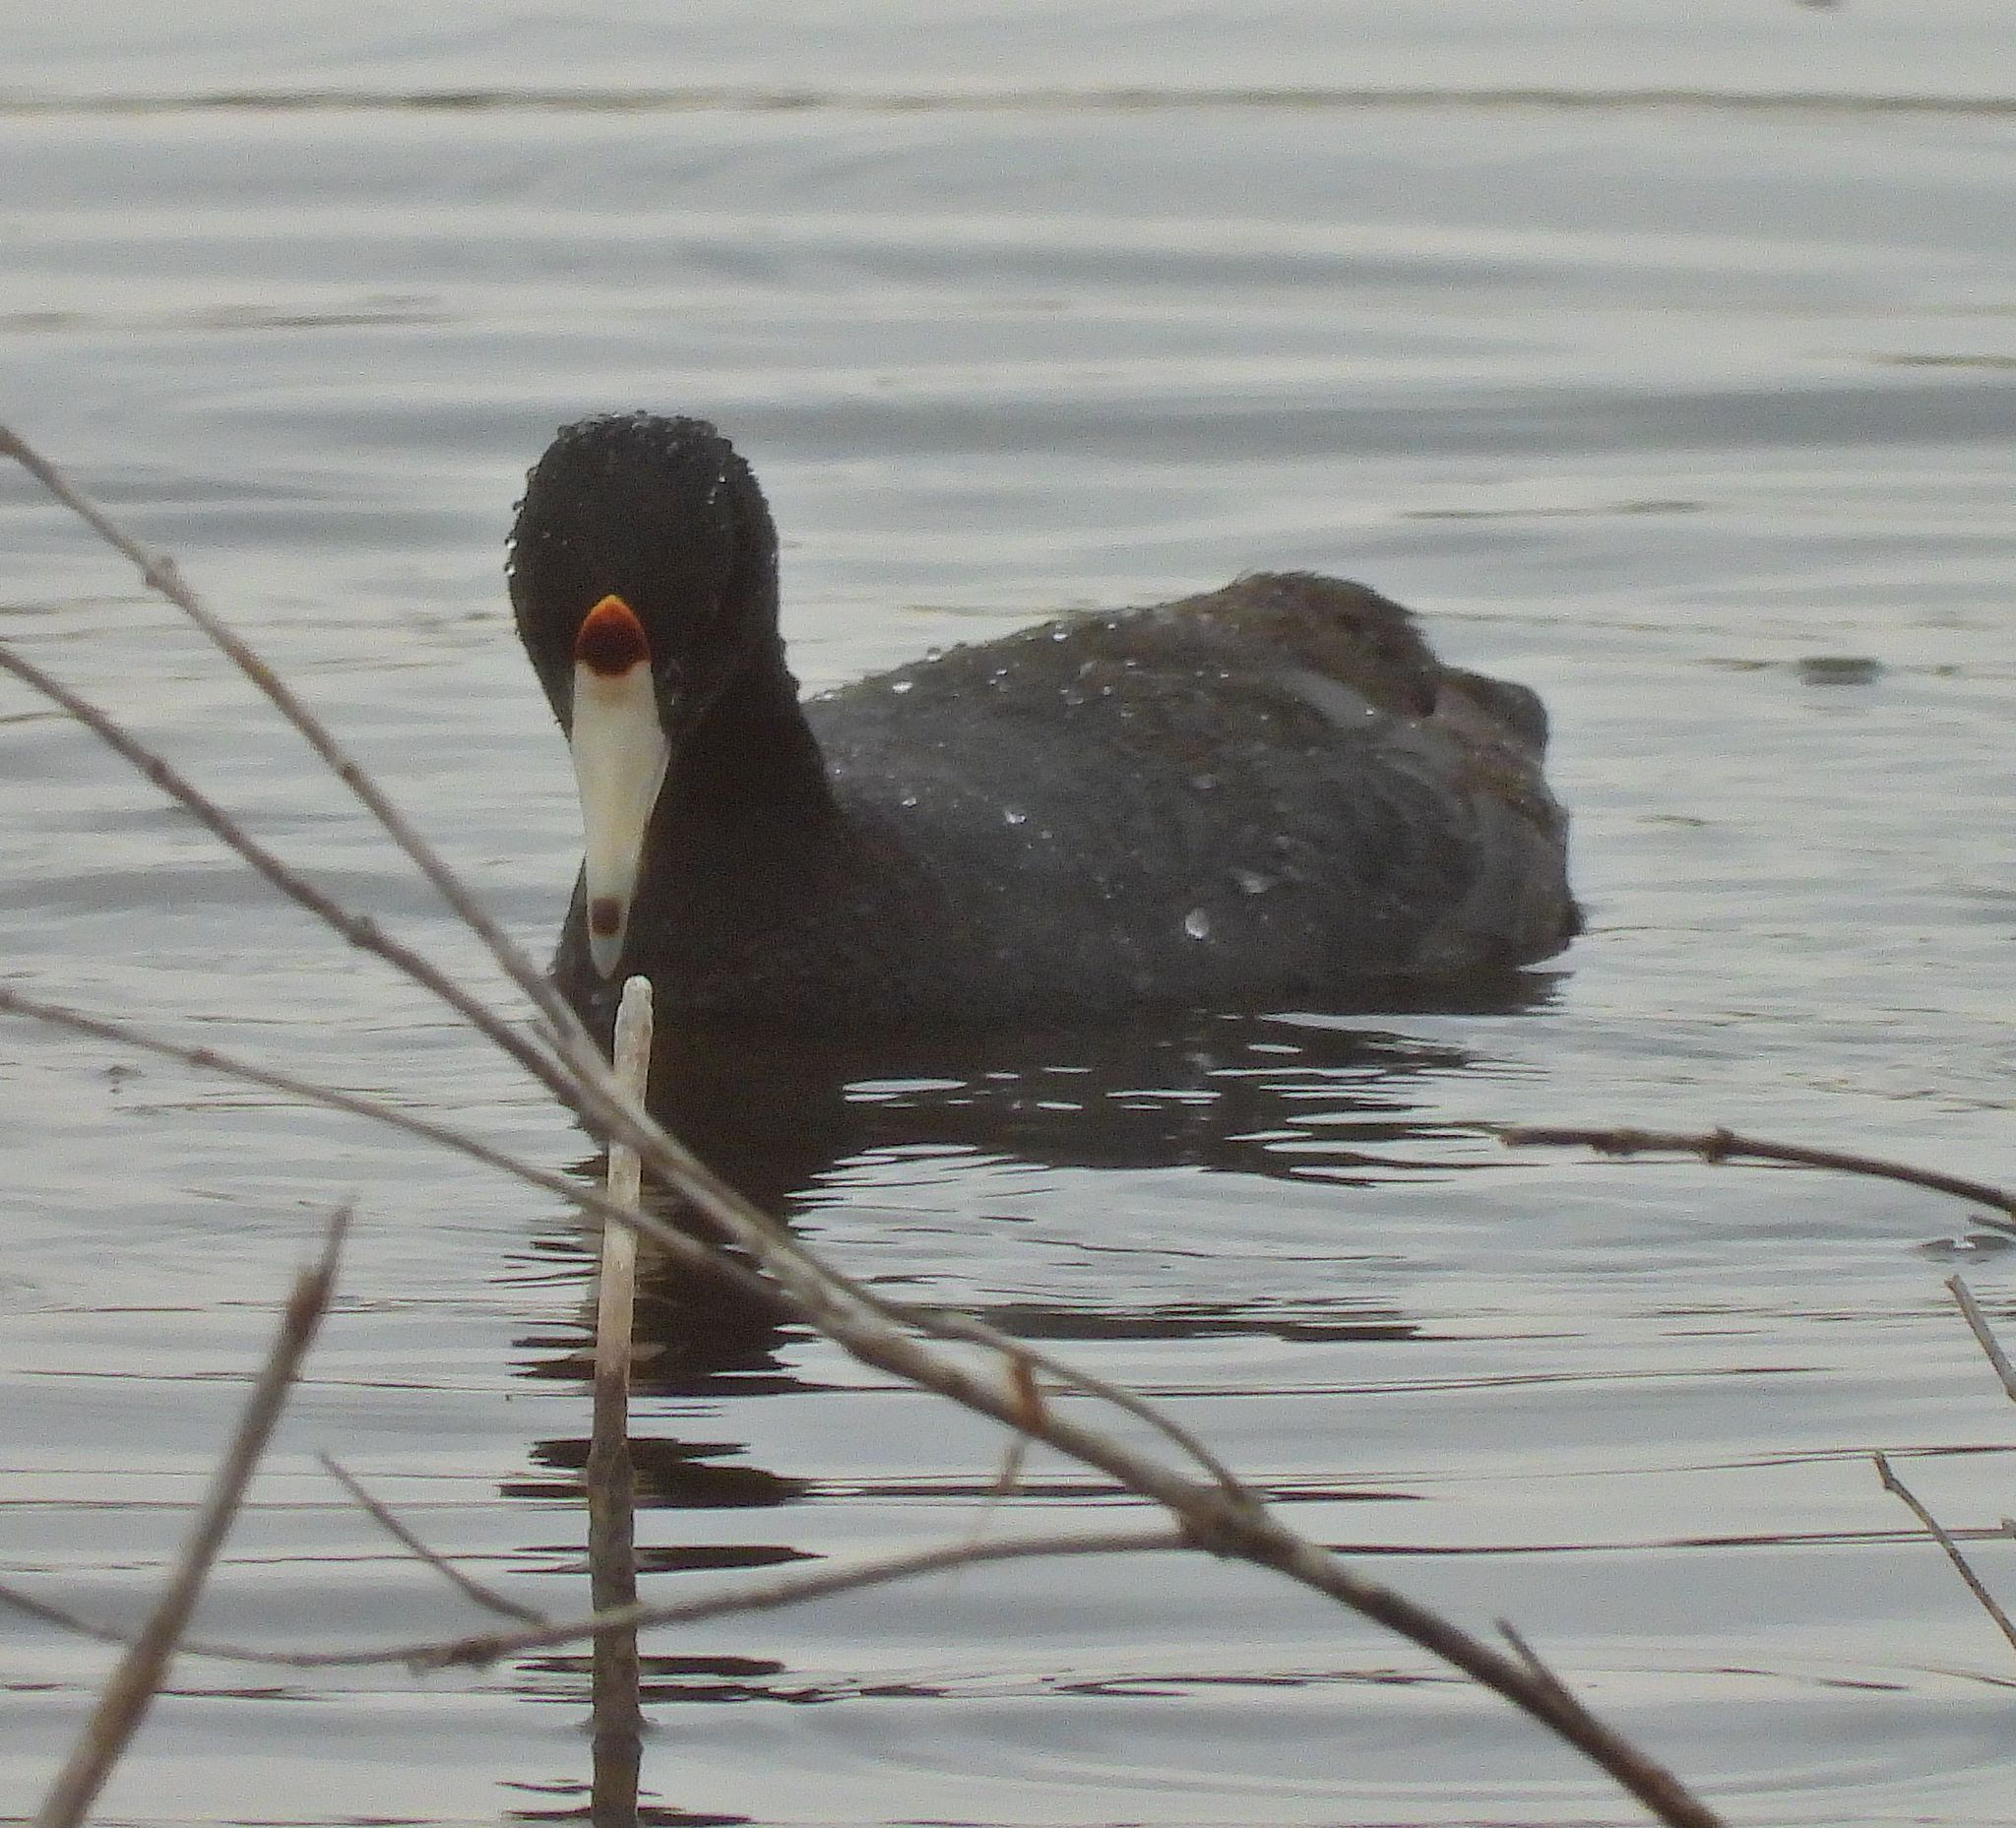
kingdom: Animalia
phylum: Chordata
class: Aves
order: Gruiformes
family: Rallidae
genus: Fulica
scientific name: Fulica americana
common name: American coot
